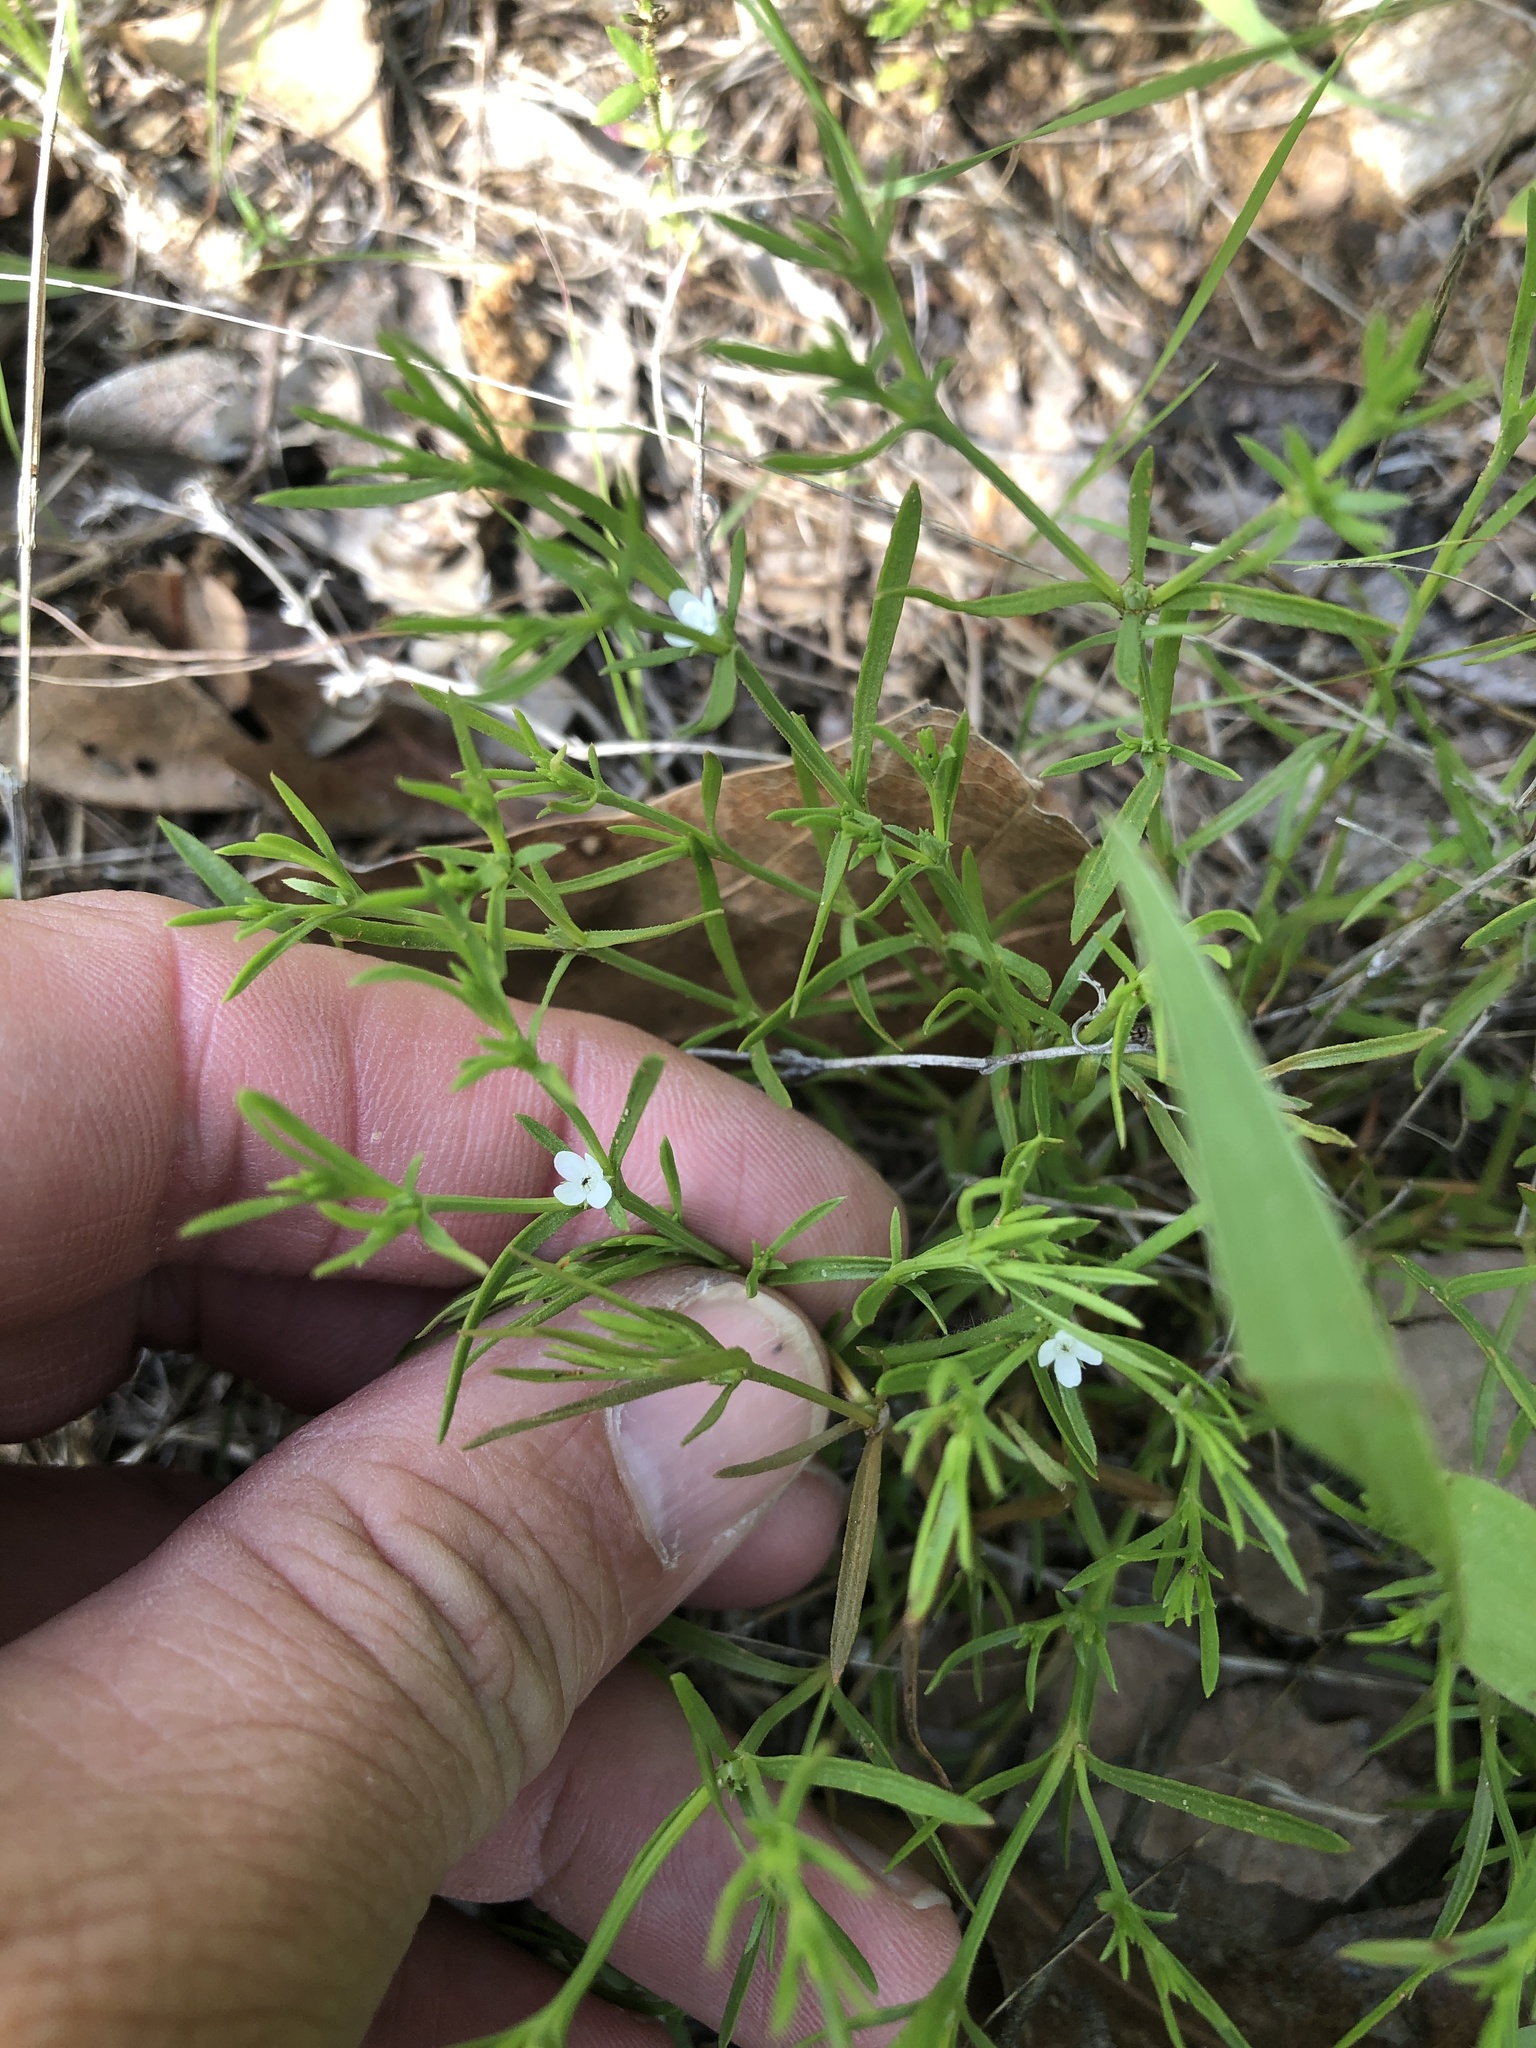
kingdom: Plantae
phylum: Tracheophyta
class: Magnoliopsida
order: Lamiales
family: Tetrachondraceae
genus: Polypremum
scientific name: Polypremum procumbens
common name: Juniper-leaf
